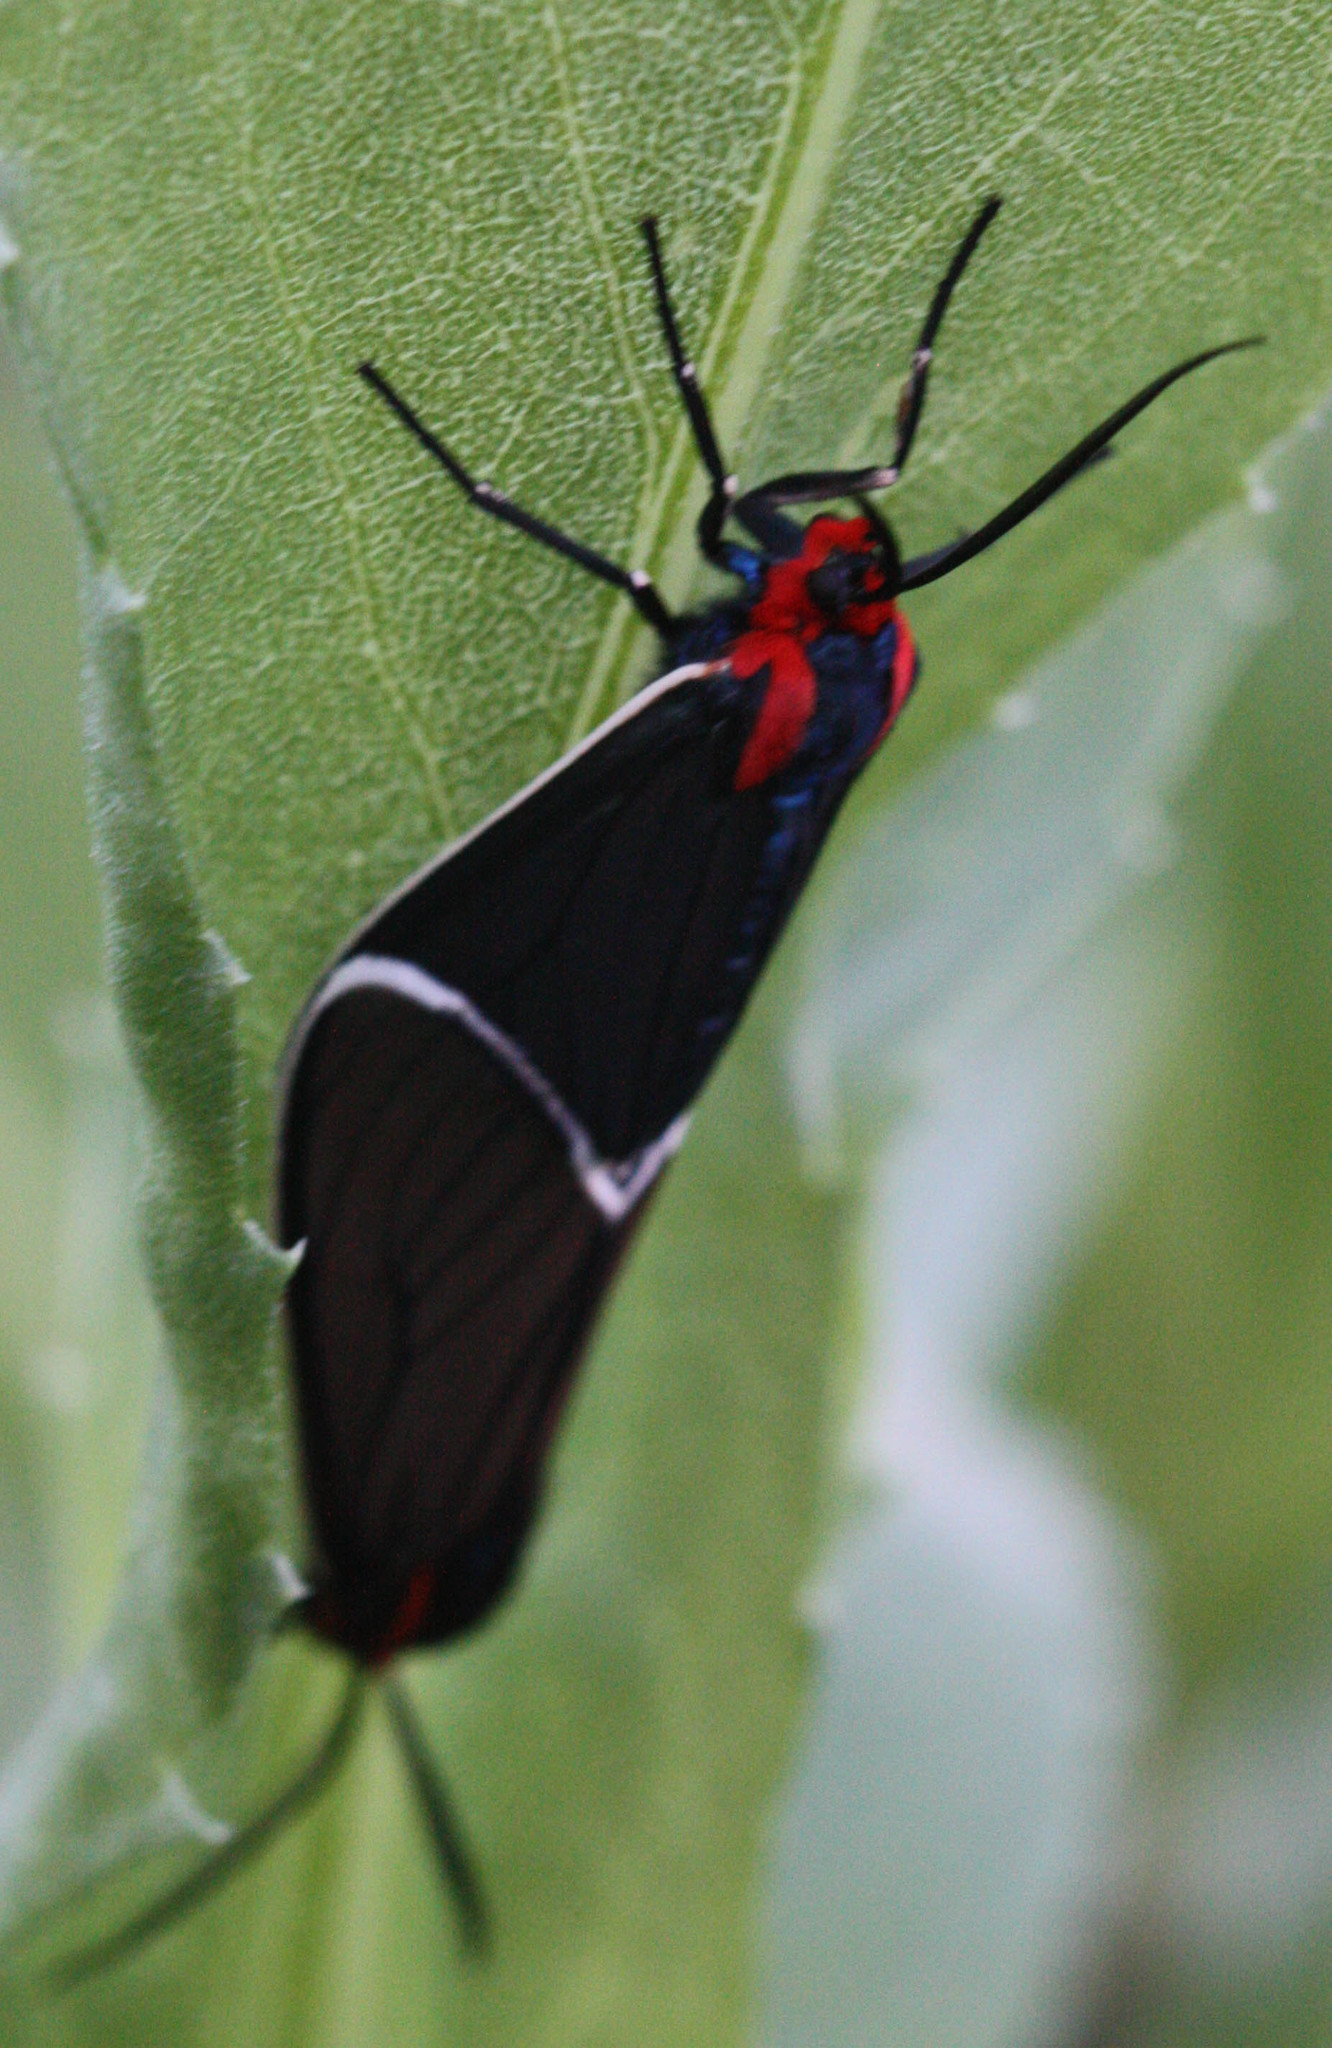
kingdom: Animalia
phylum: Arthropoda
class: Insecta
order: Lepidoptera
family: Erebidae
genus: Ctenucha
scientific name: Ctenucha multifaria
